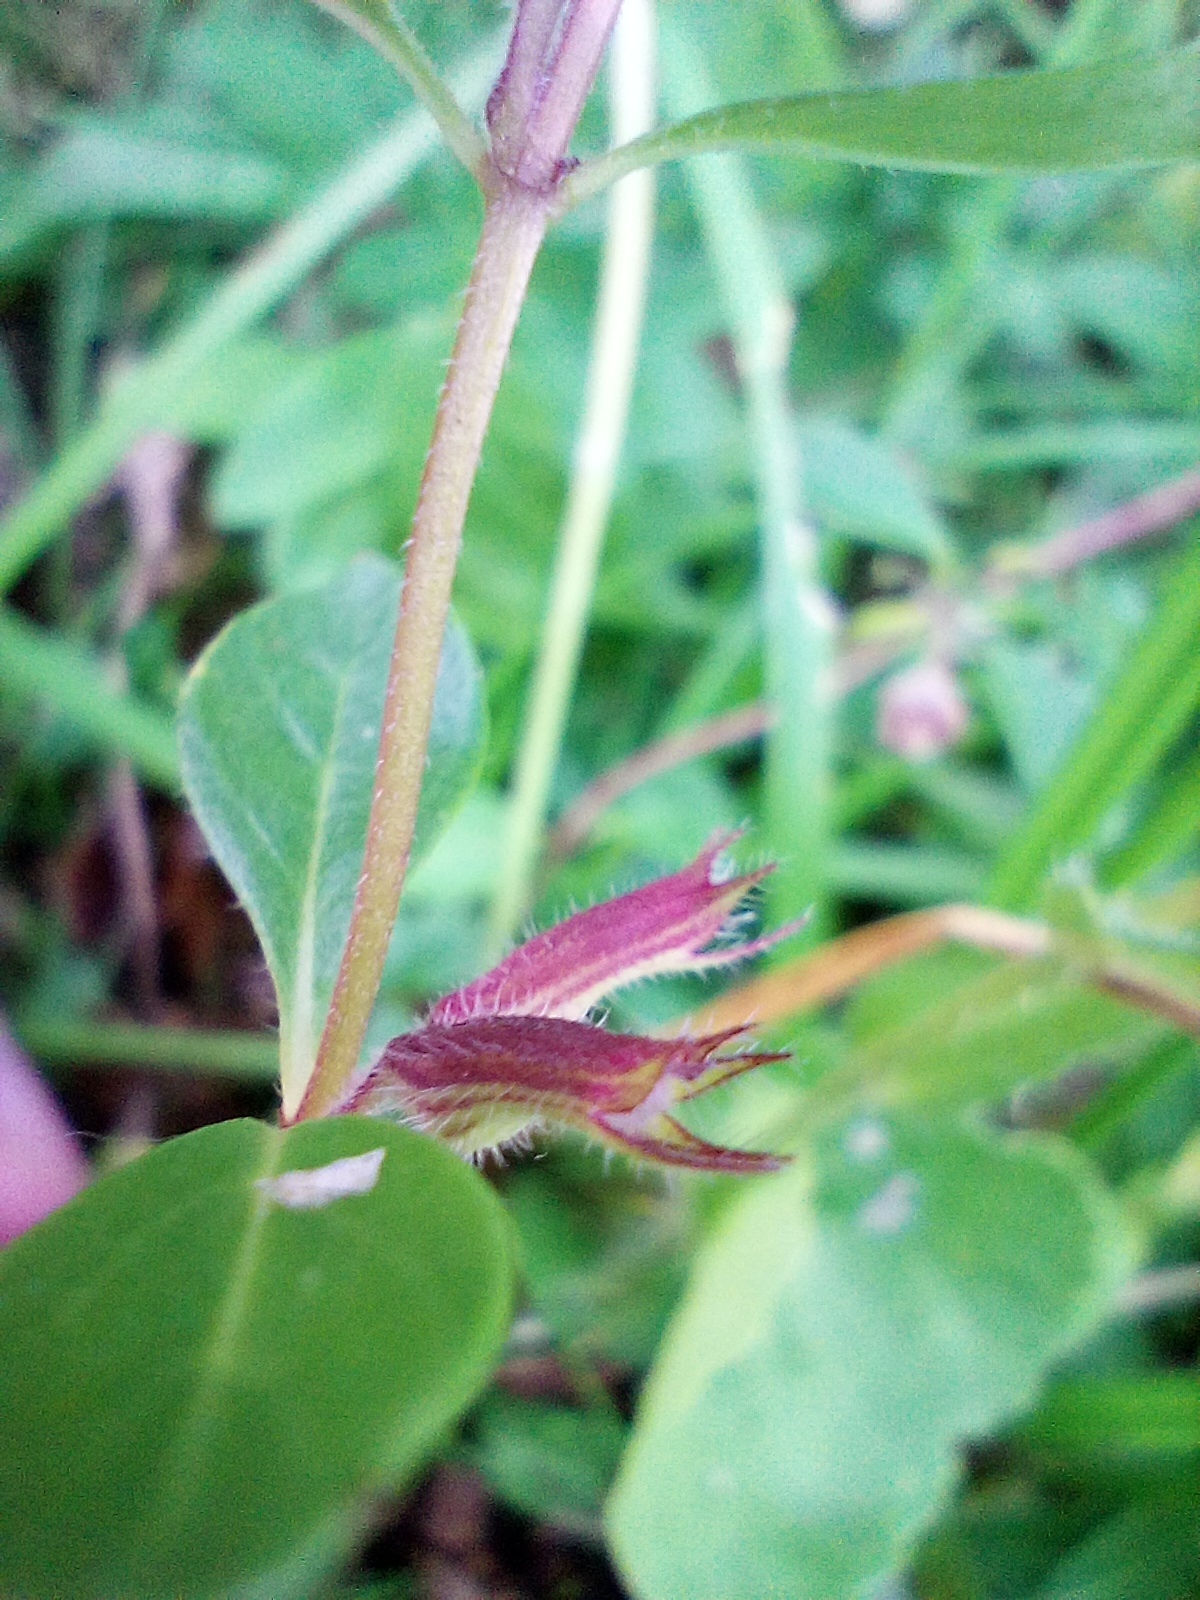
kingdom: Plantae
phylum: Tracheophyta
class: Magnoliopsida
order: Lamiales
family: Lamiaceae
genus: Clinopodium
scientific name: Clinopodium alpinum
